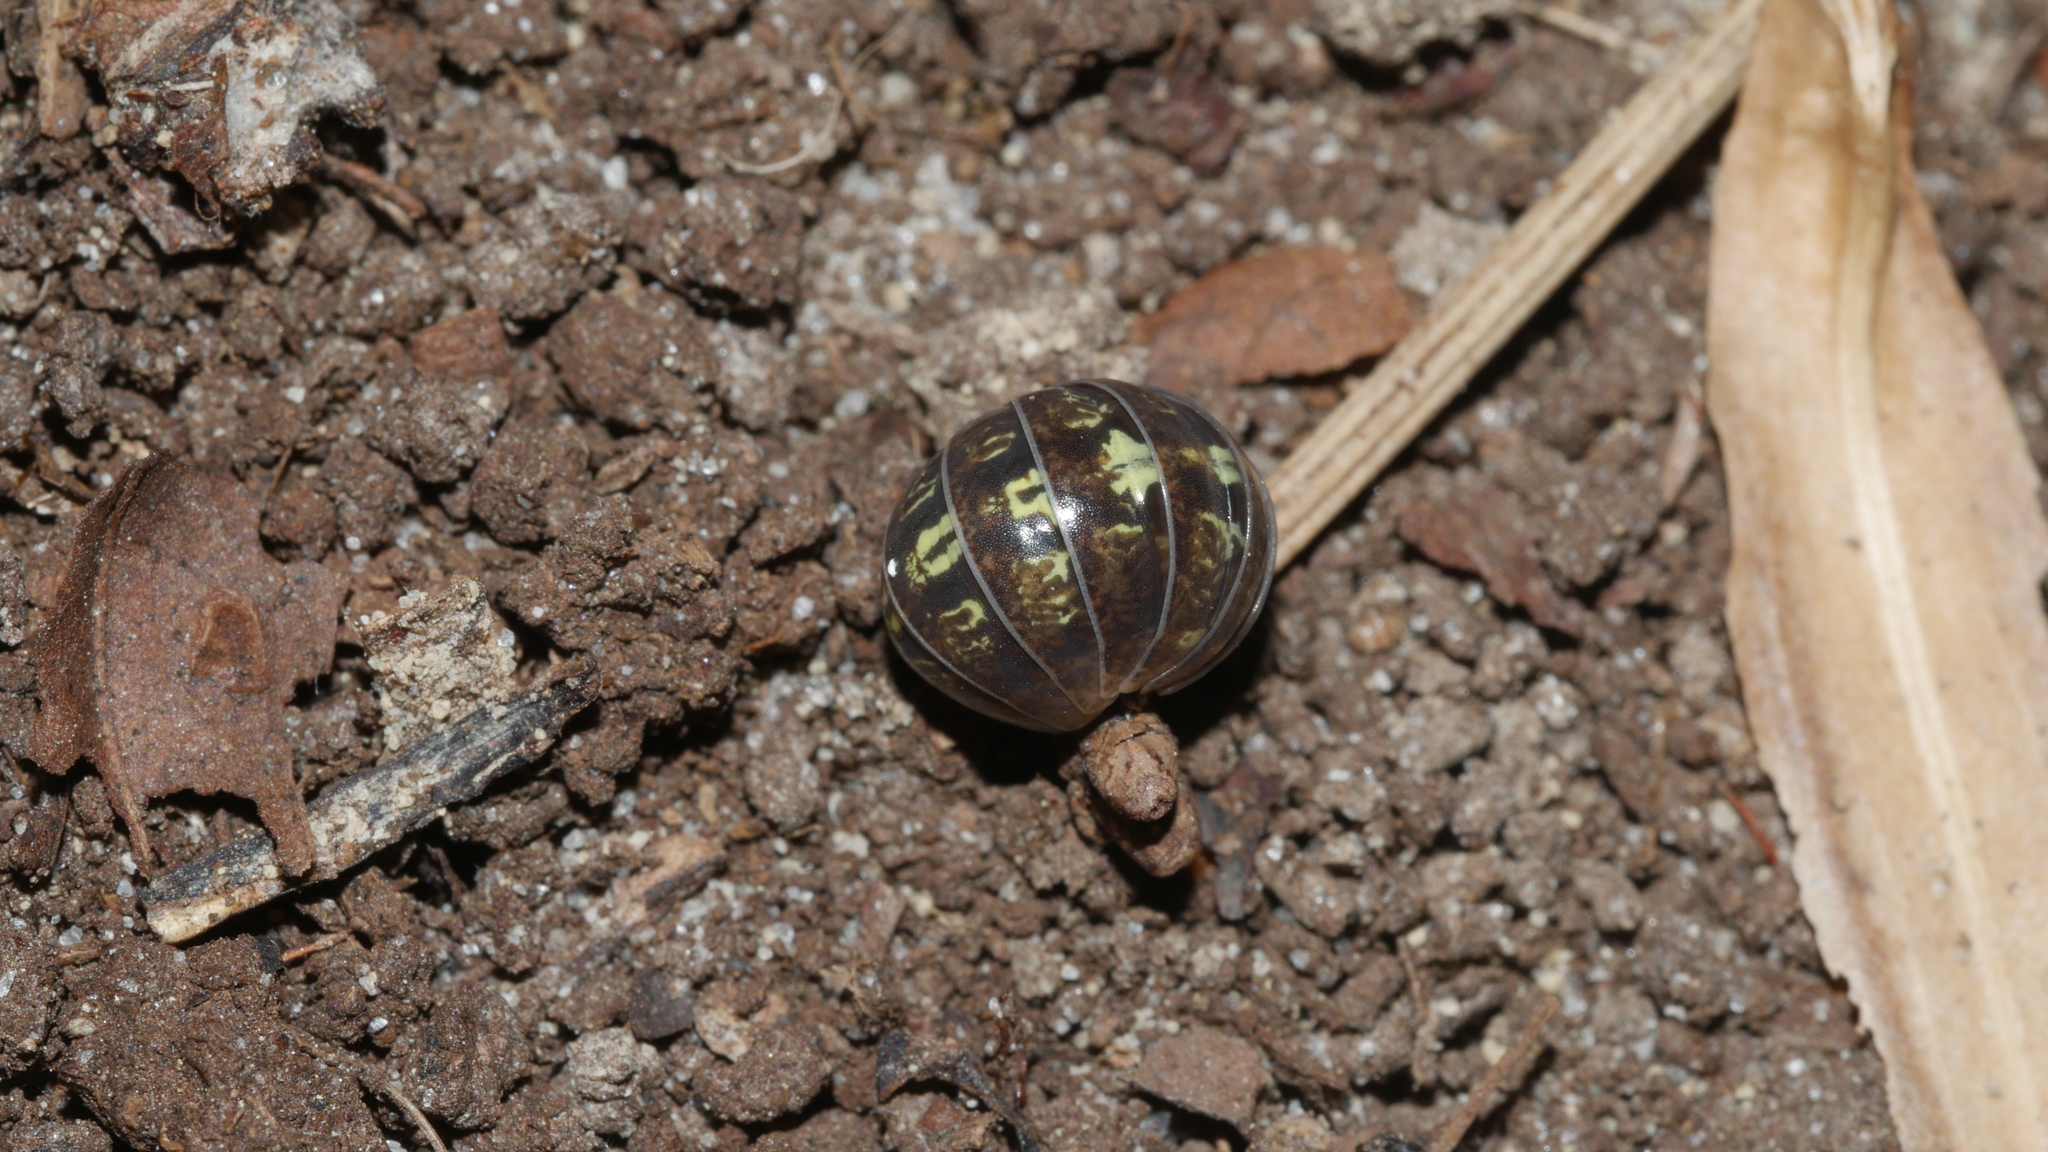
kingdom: Animalia
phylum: Arthropoda
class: Malacostraca
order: Isopoda
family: Armadillidiidae
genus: Armadillidium
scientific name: Armadillidium vulgare
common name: Common pill woodlouse
